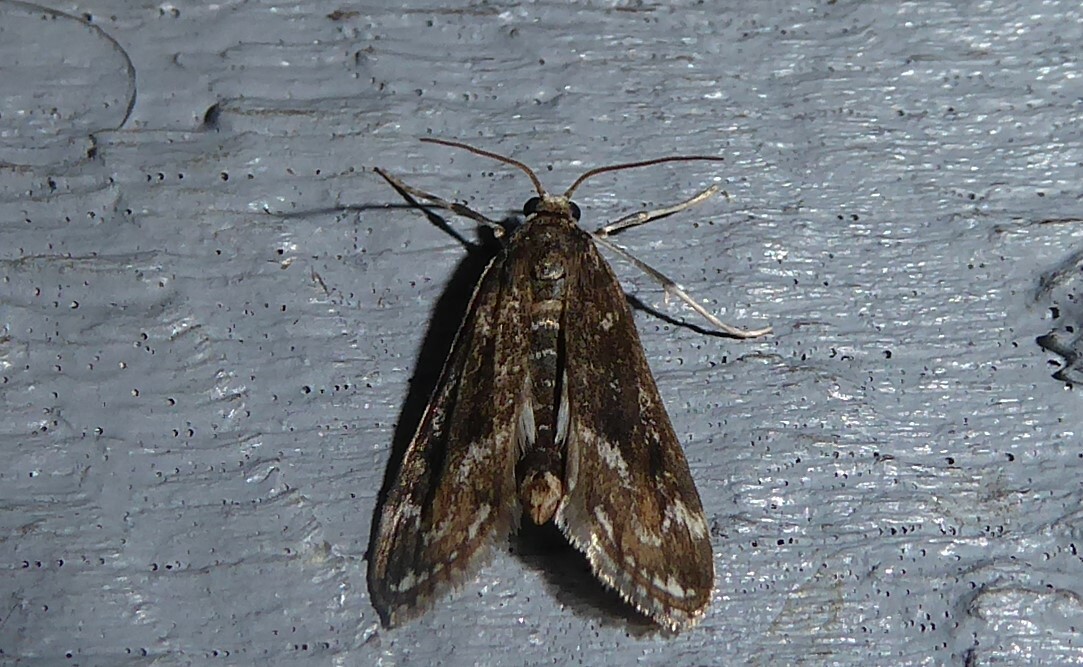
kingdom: Animalia
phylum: Arthropoda
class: Insecta
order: Lepidoptera
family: Crambidae
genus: Hygraula
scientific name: Hygraula nitens
